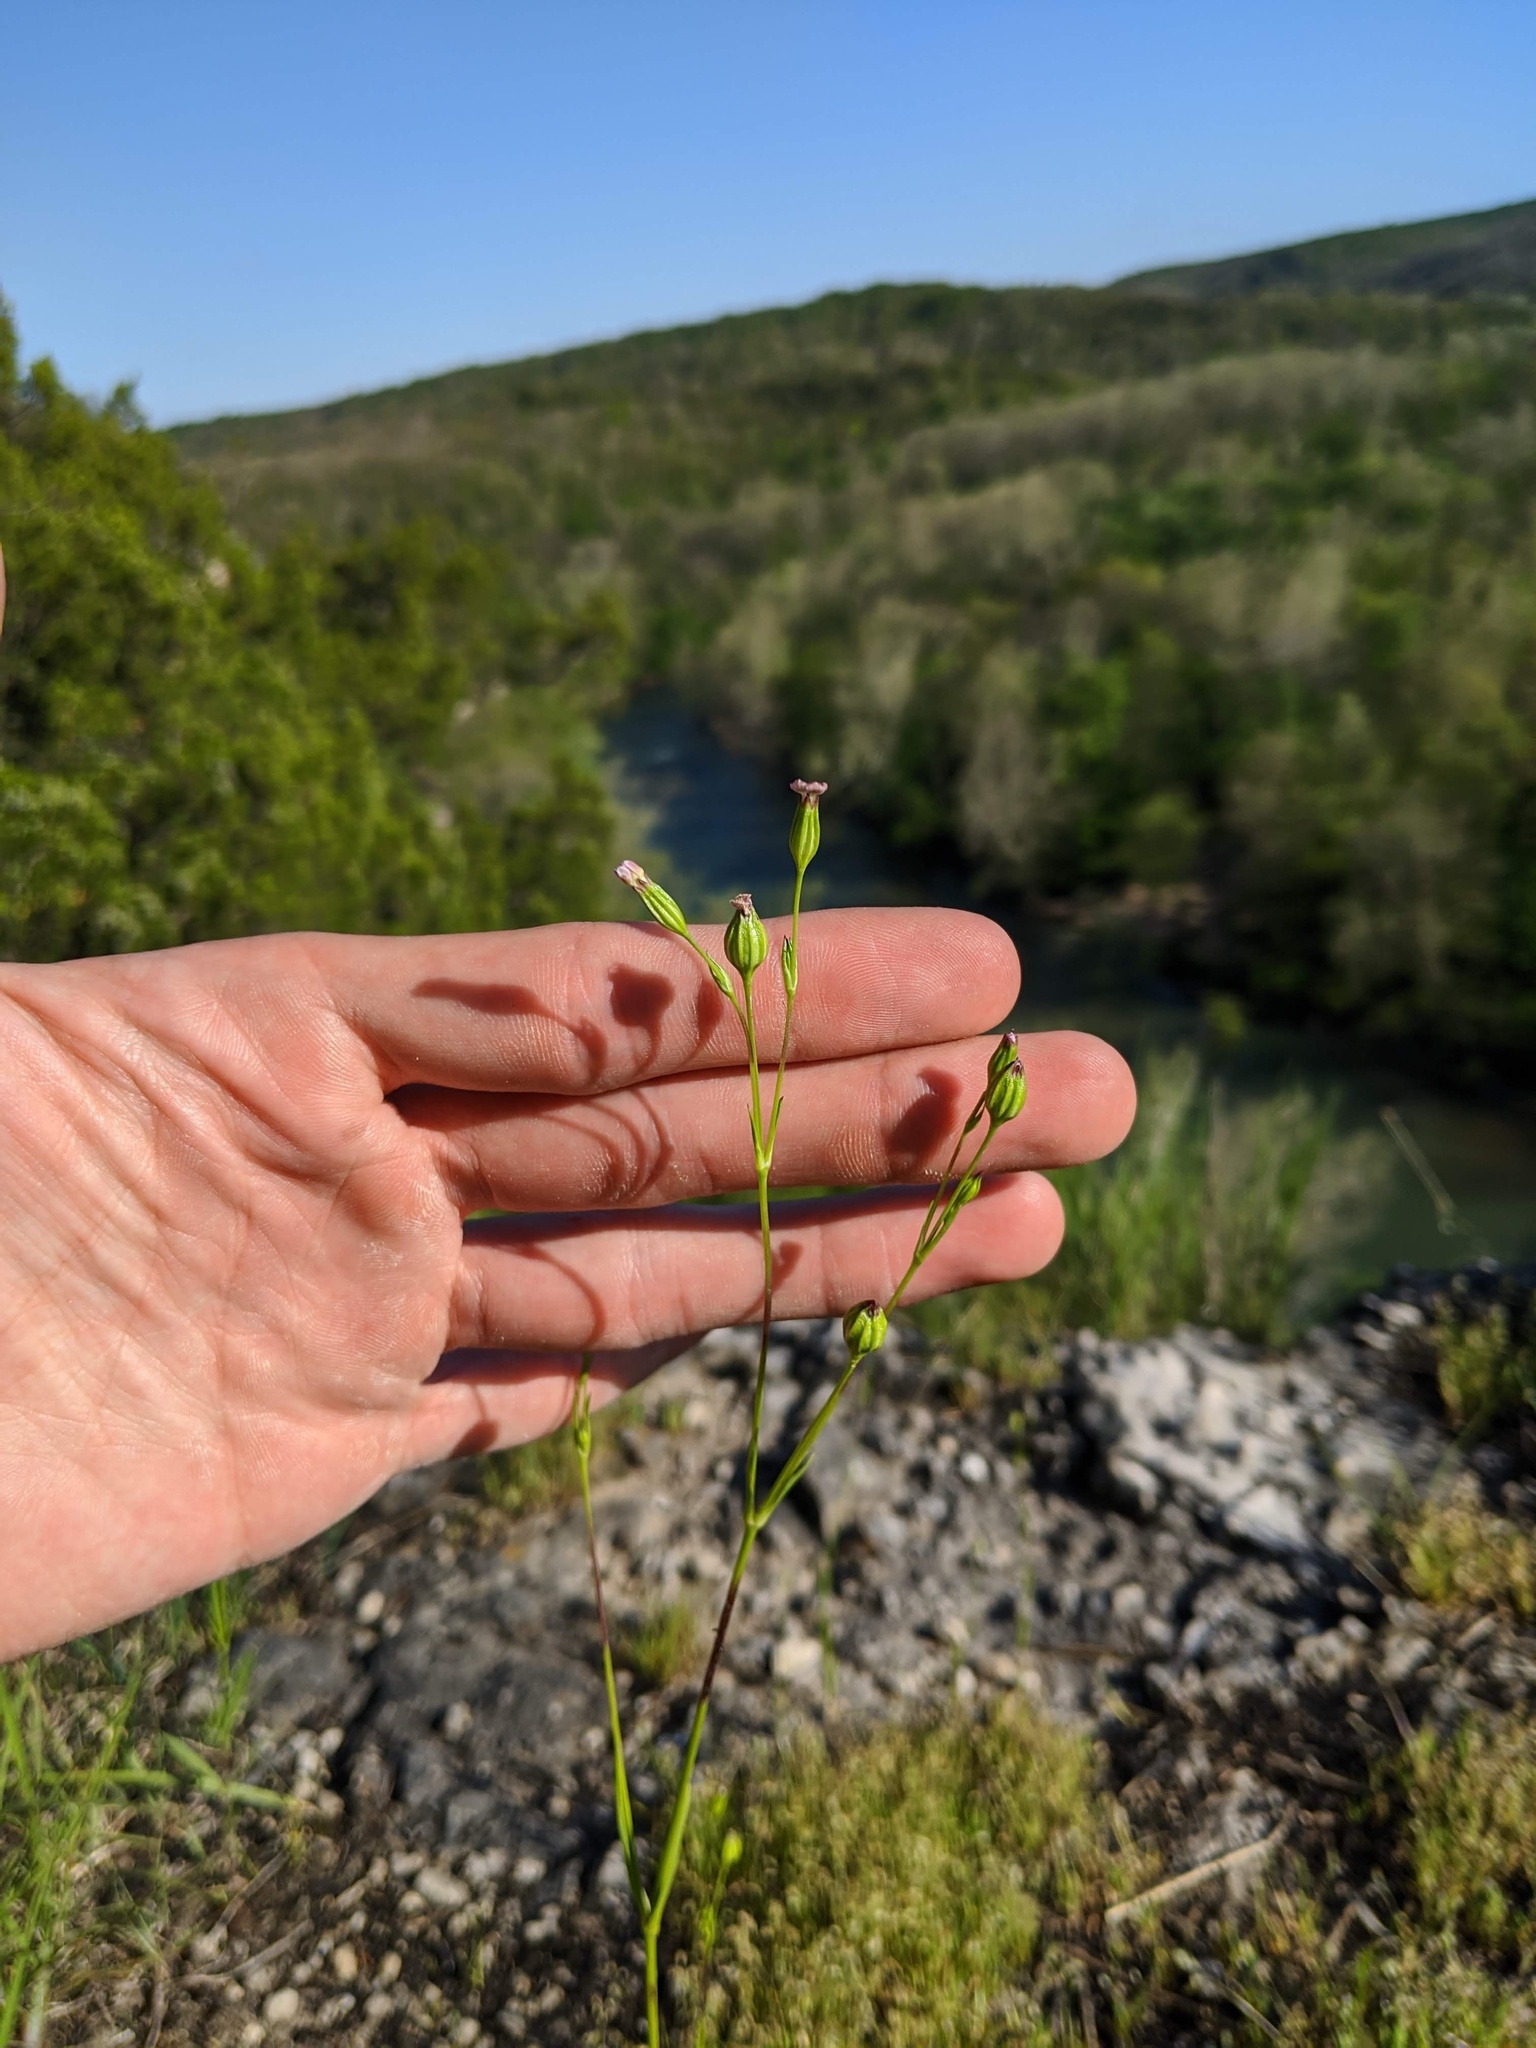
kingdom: Plantae
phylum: Tracheophyta
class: Magnoliopsida
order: Caryophyllales
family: Caryophyllaceae
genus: Silene
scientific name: Silene antirrhina
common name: Sleepy catchfly
